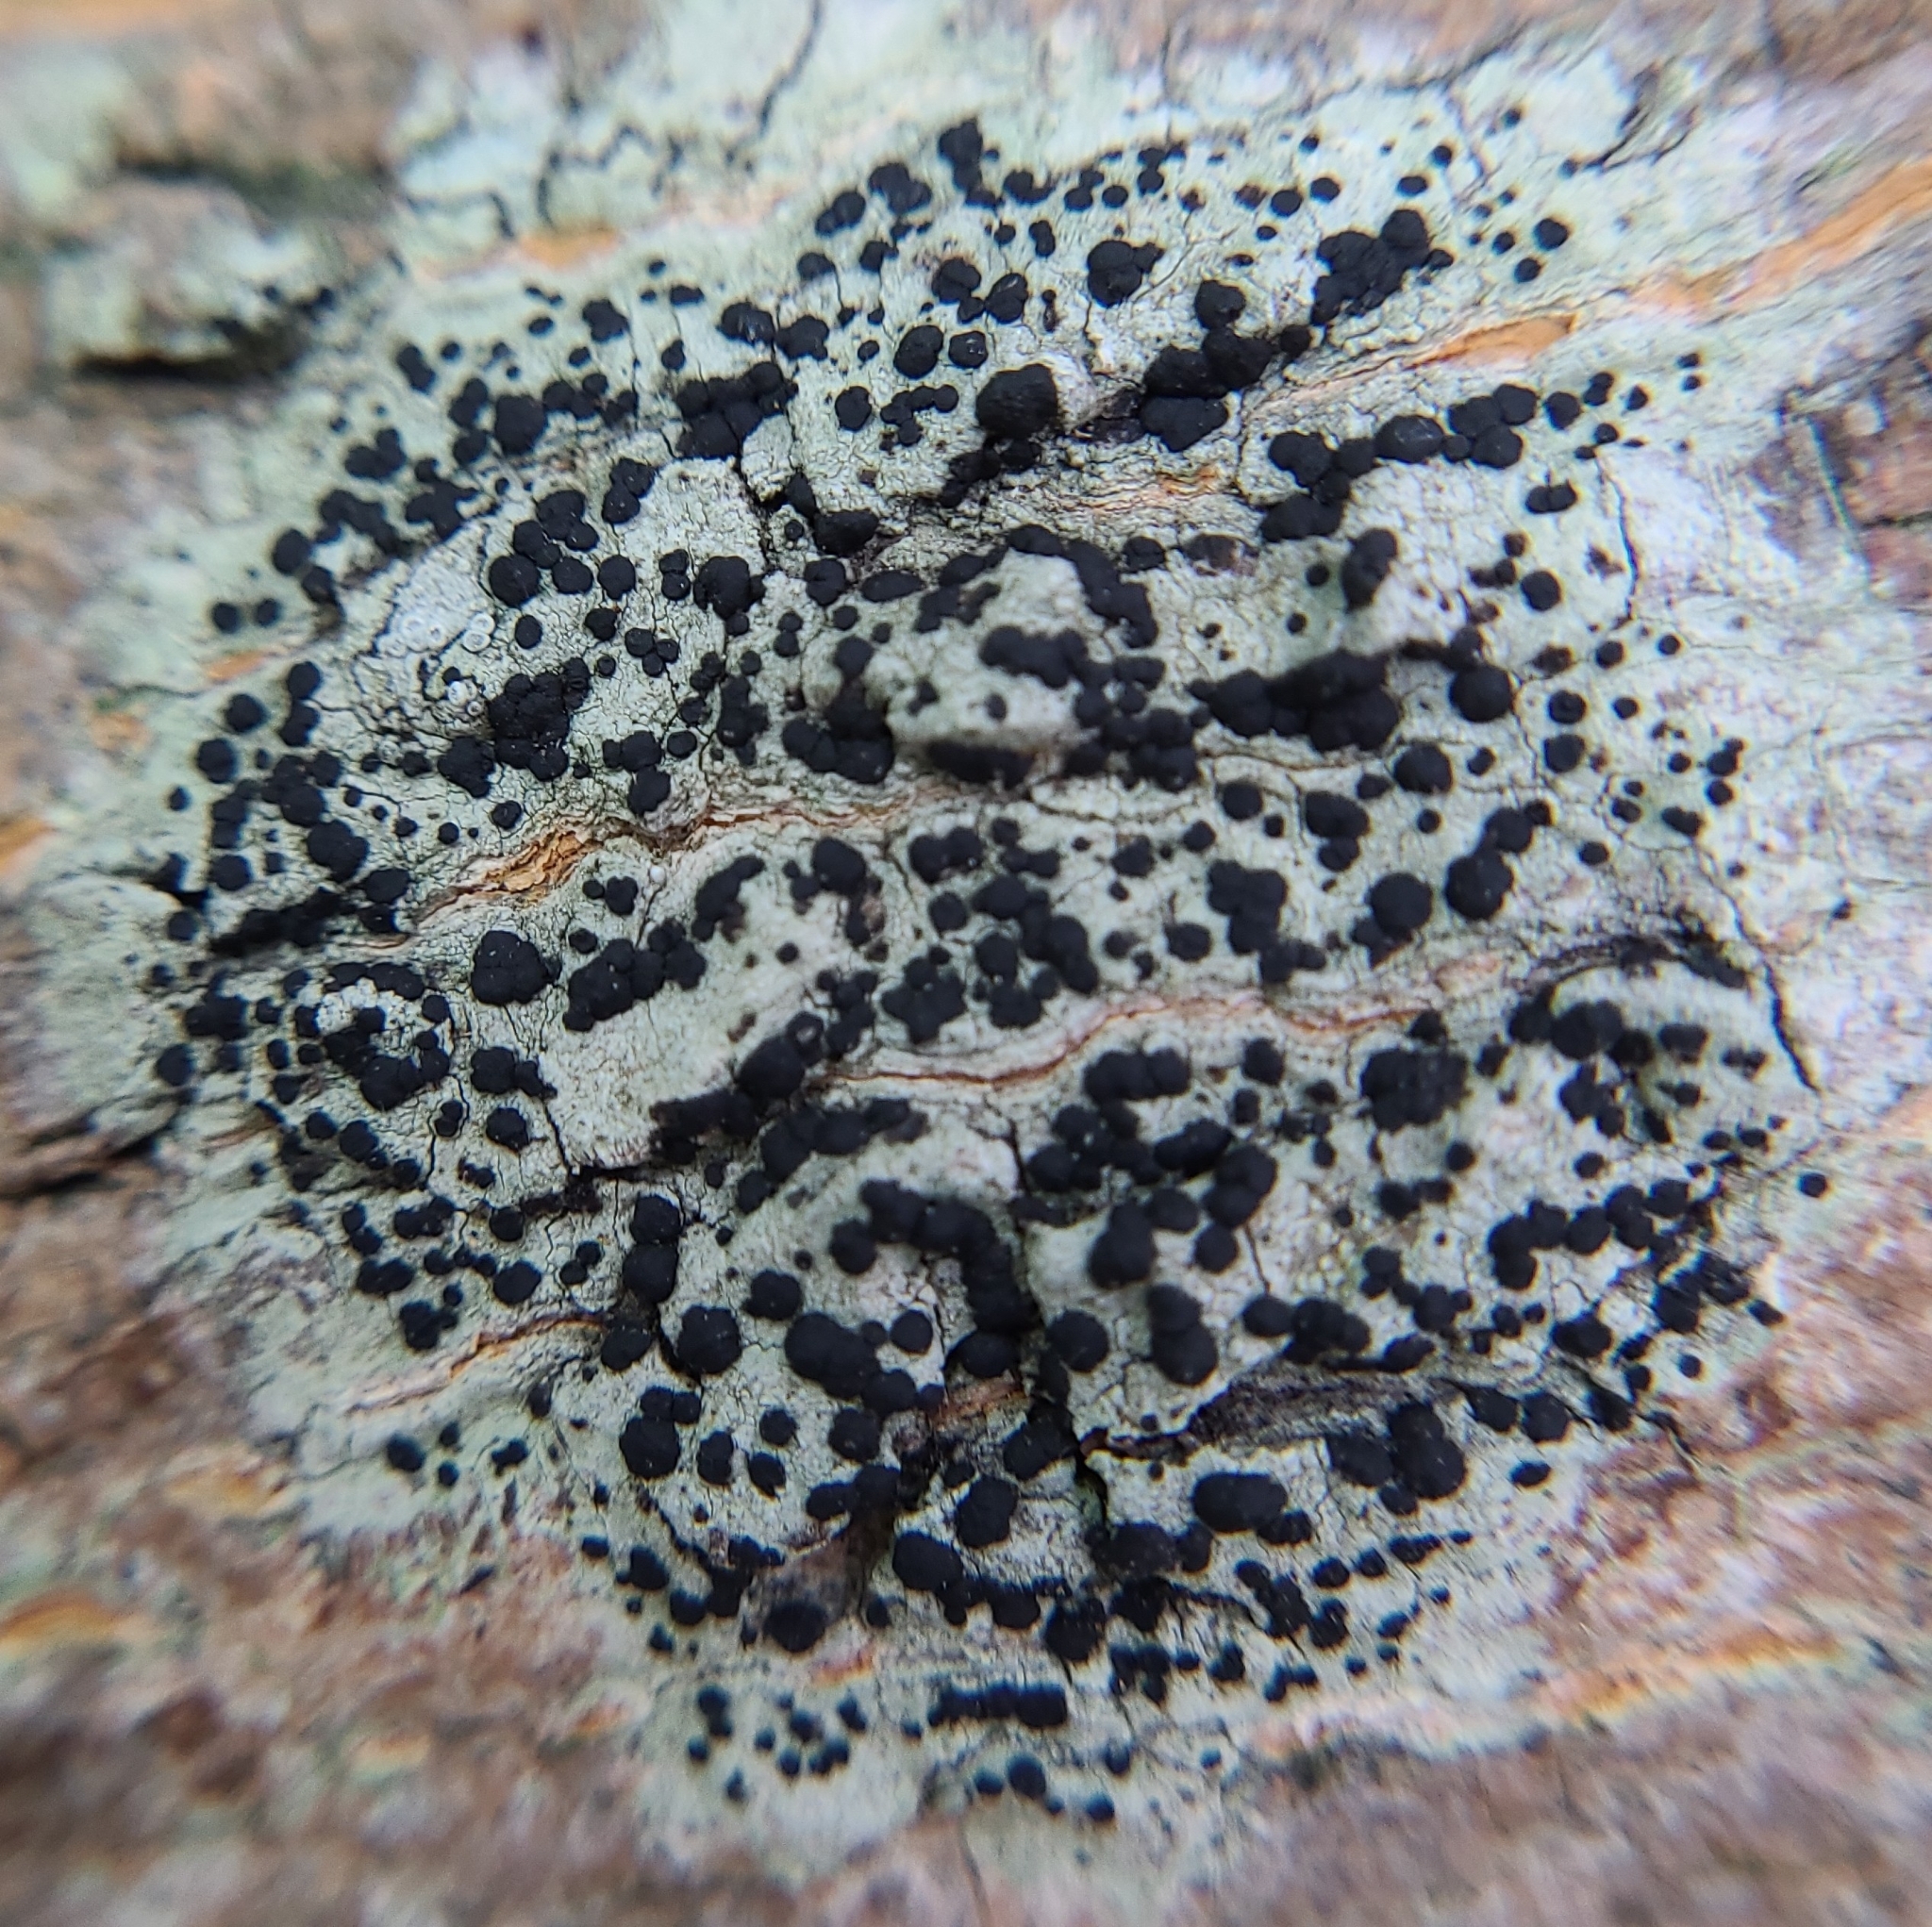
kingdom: Fungi
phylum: Ascomycota
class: Lecanoromycetes
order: Caliciales
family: Caliciaceae
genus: Buellia
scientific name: Buellia erubescens
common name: Common button lichen
